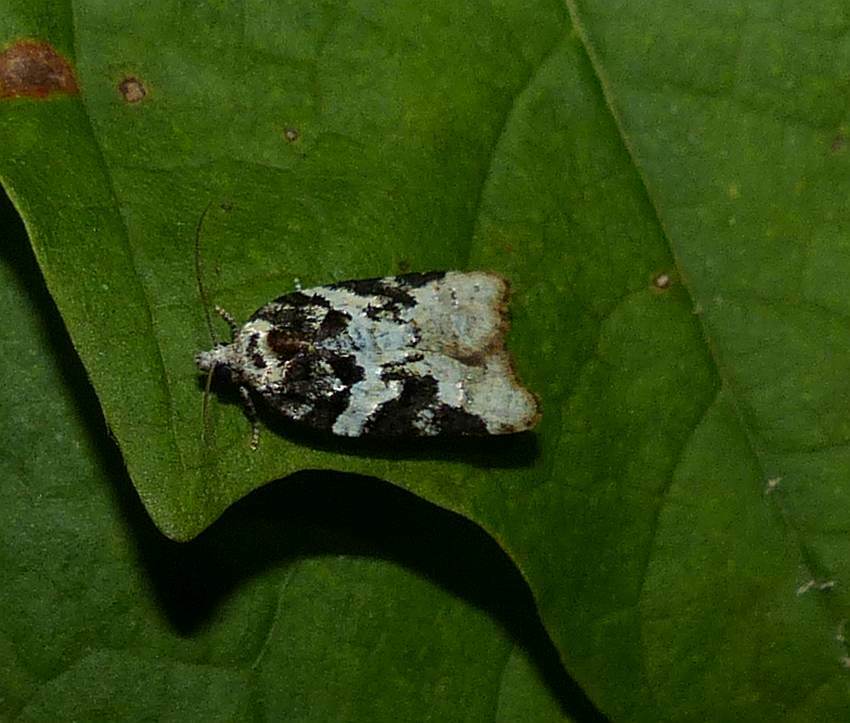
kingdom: Animalia
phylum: Arthropoda
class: Insecta
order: Lepidoptera
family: Tortricidae
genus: Acleris
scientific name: Acleris variana
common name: Eastern black-headed budworm moth
